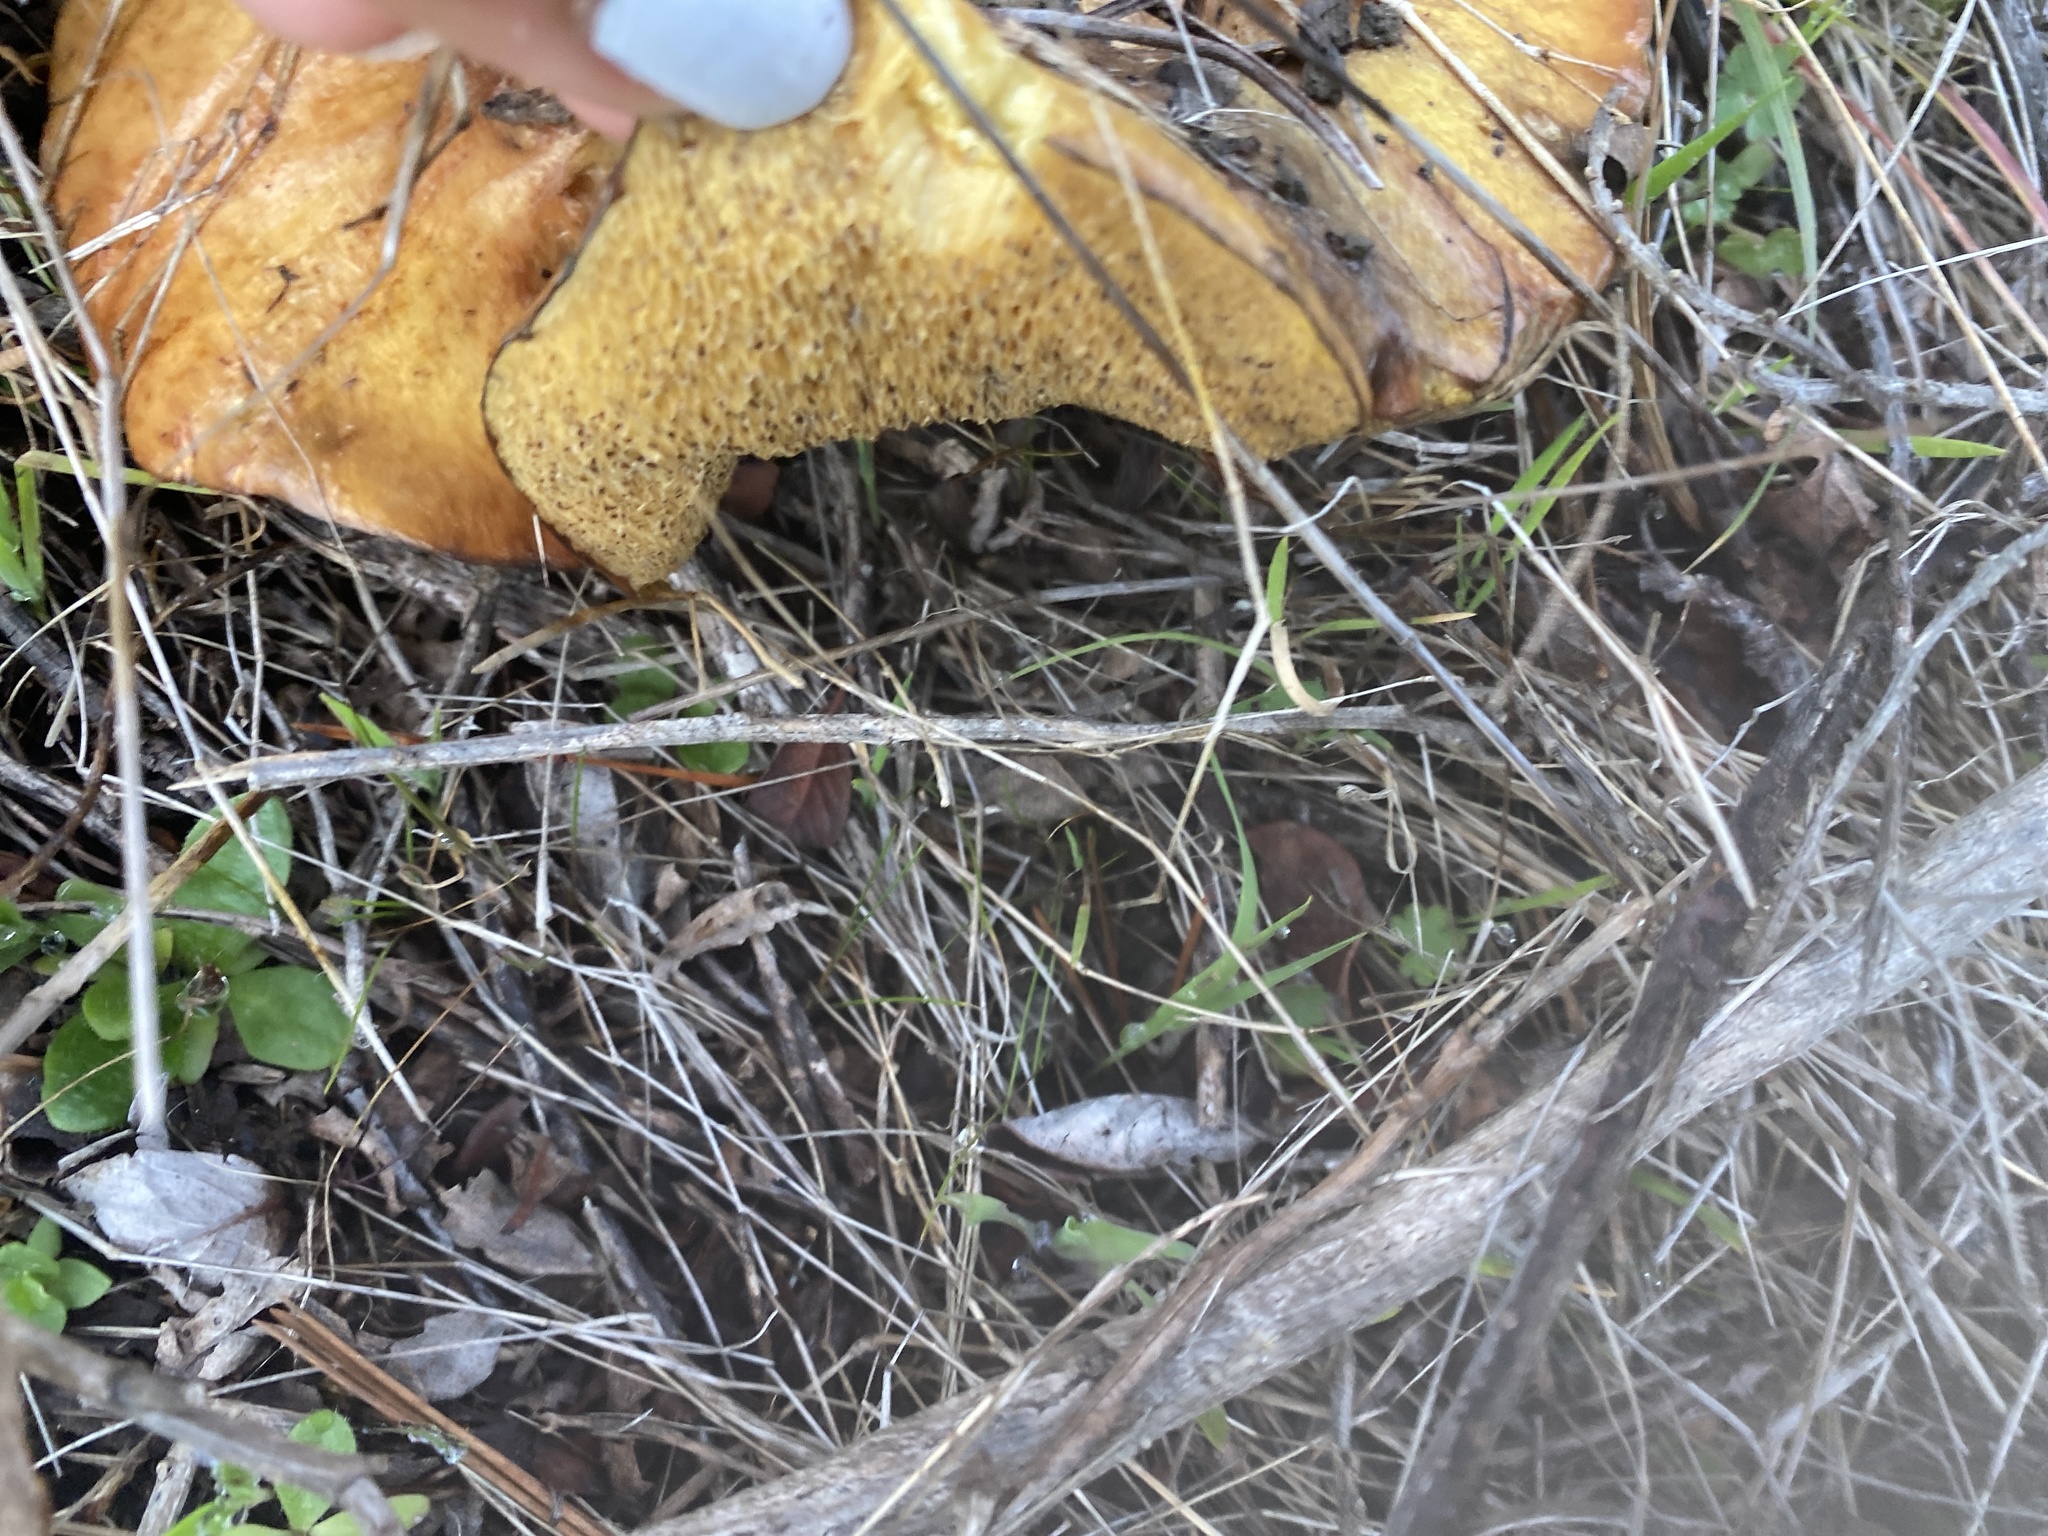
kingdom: Fungi
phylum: Basidiomycota
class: Agaricomycetes
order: Boletales
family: Suillaceae
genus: Suillus
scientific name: Suillus pungens
